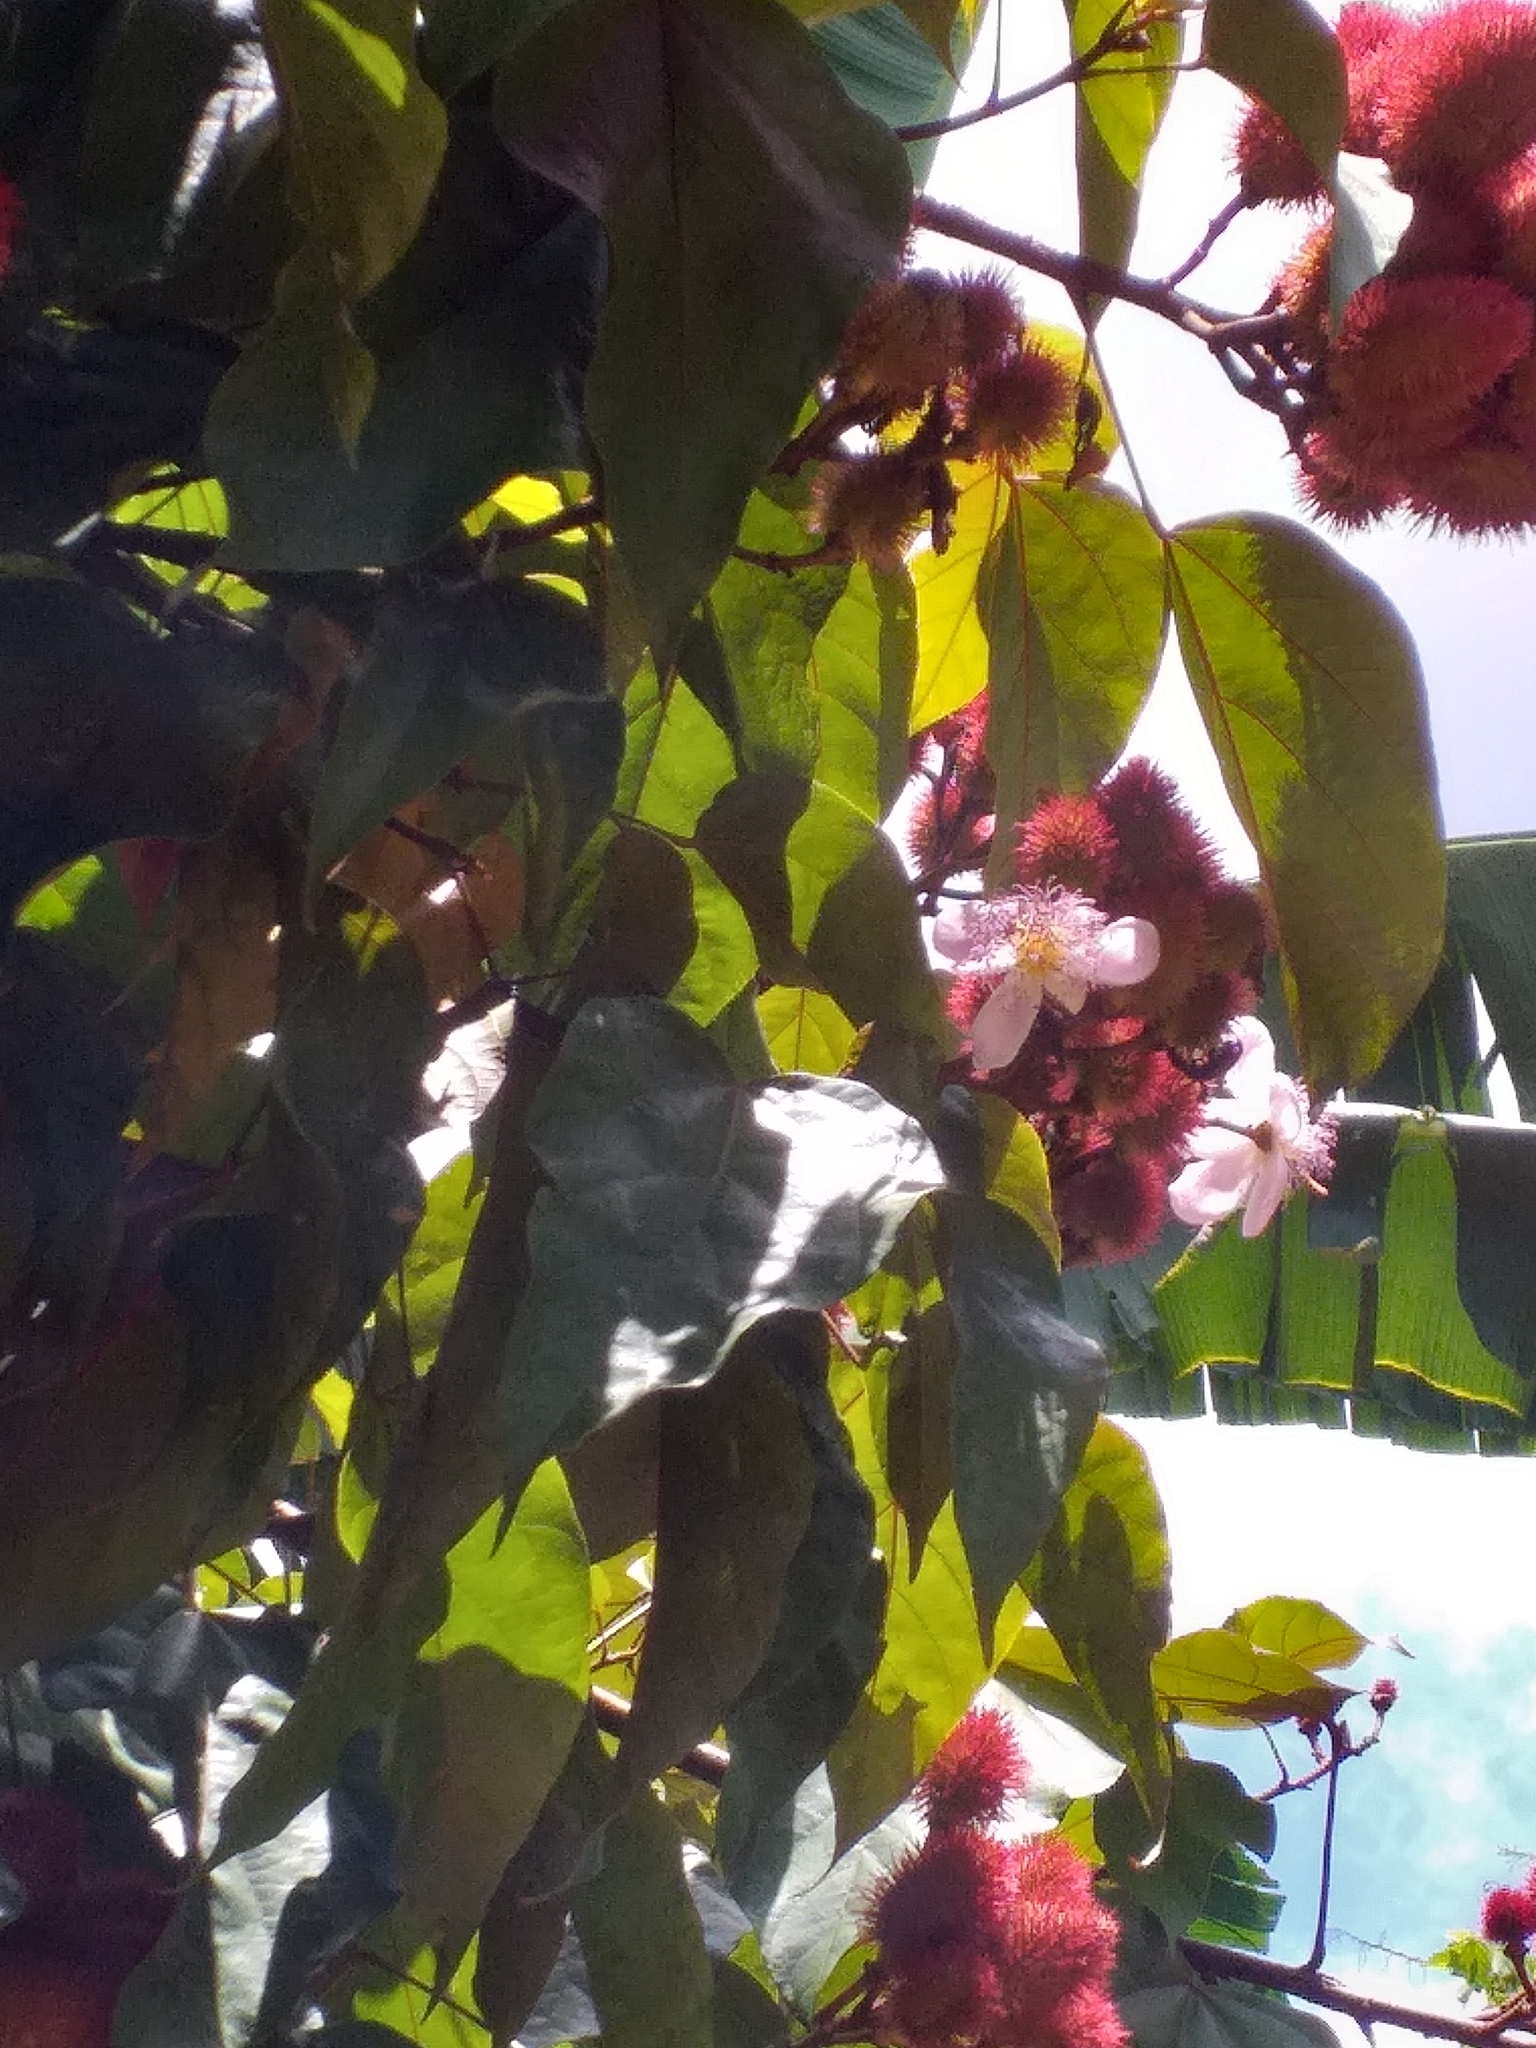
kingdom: Plantae
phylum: Tracheophyta
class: Magnoliopsida
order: Malvales
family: Bixaceae
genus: Bixa
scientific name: Bixa orellana
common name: Lipsticktree
